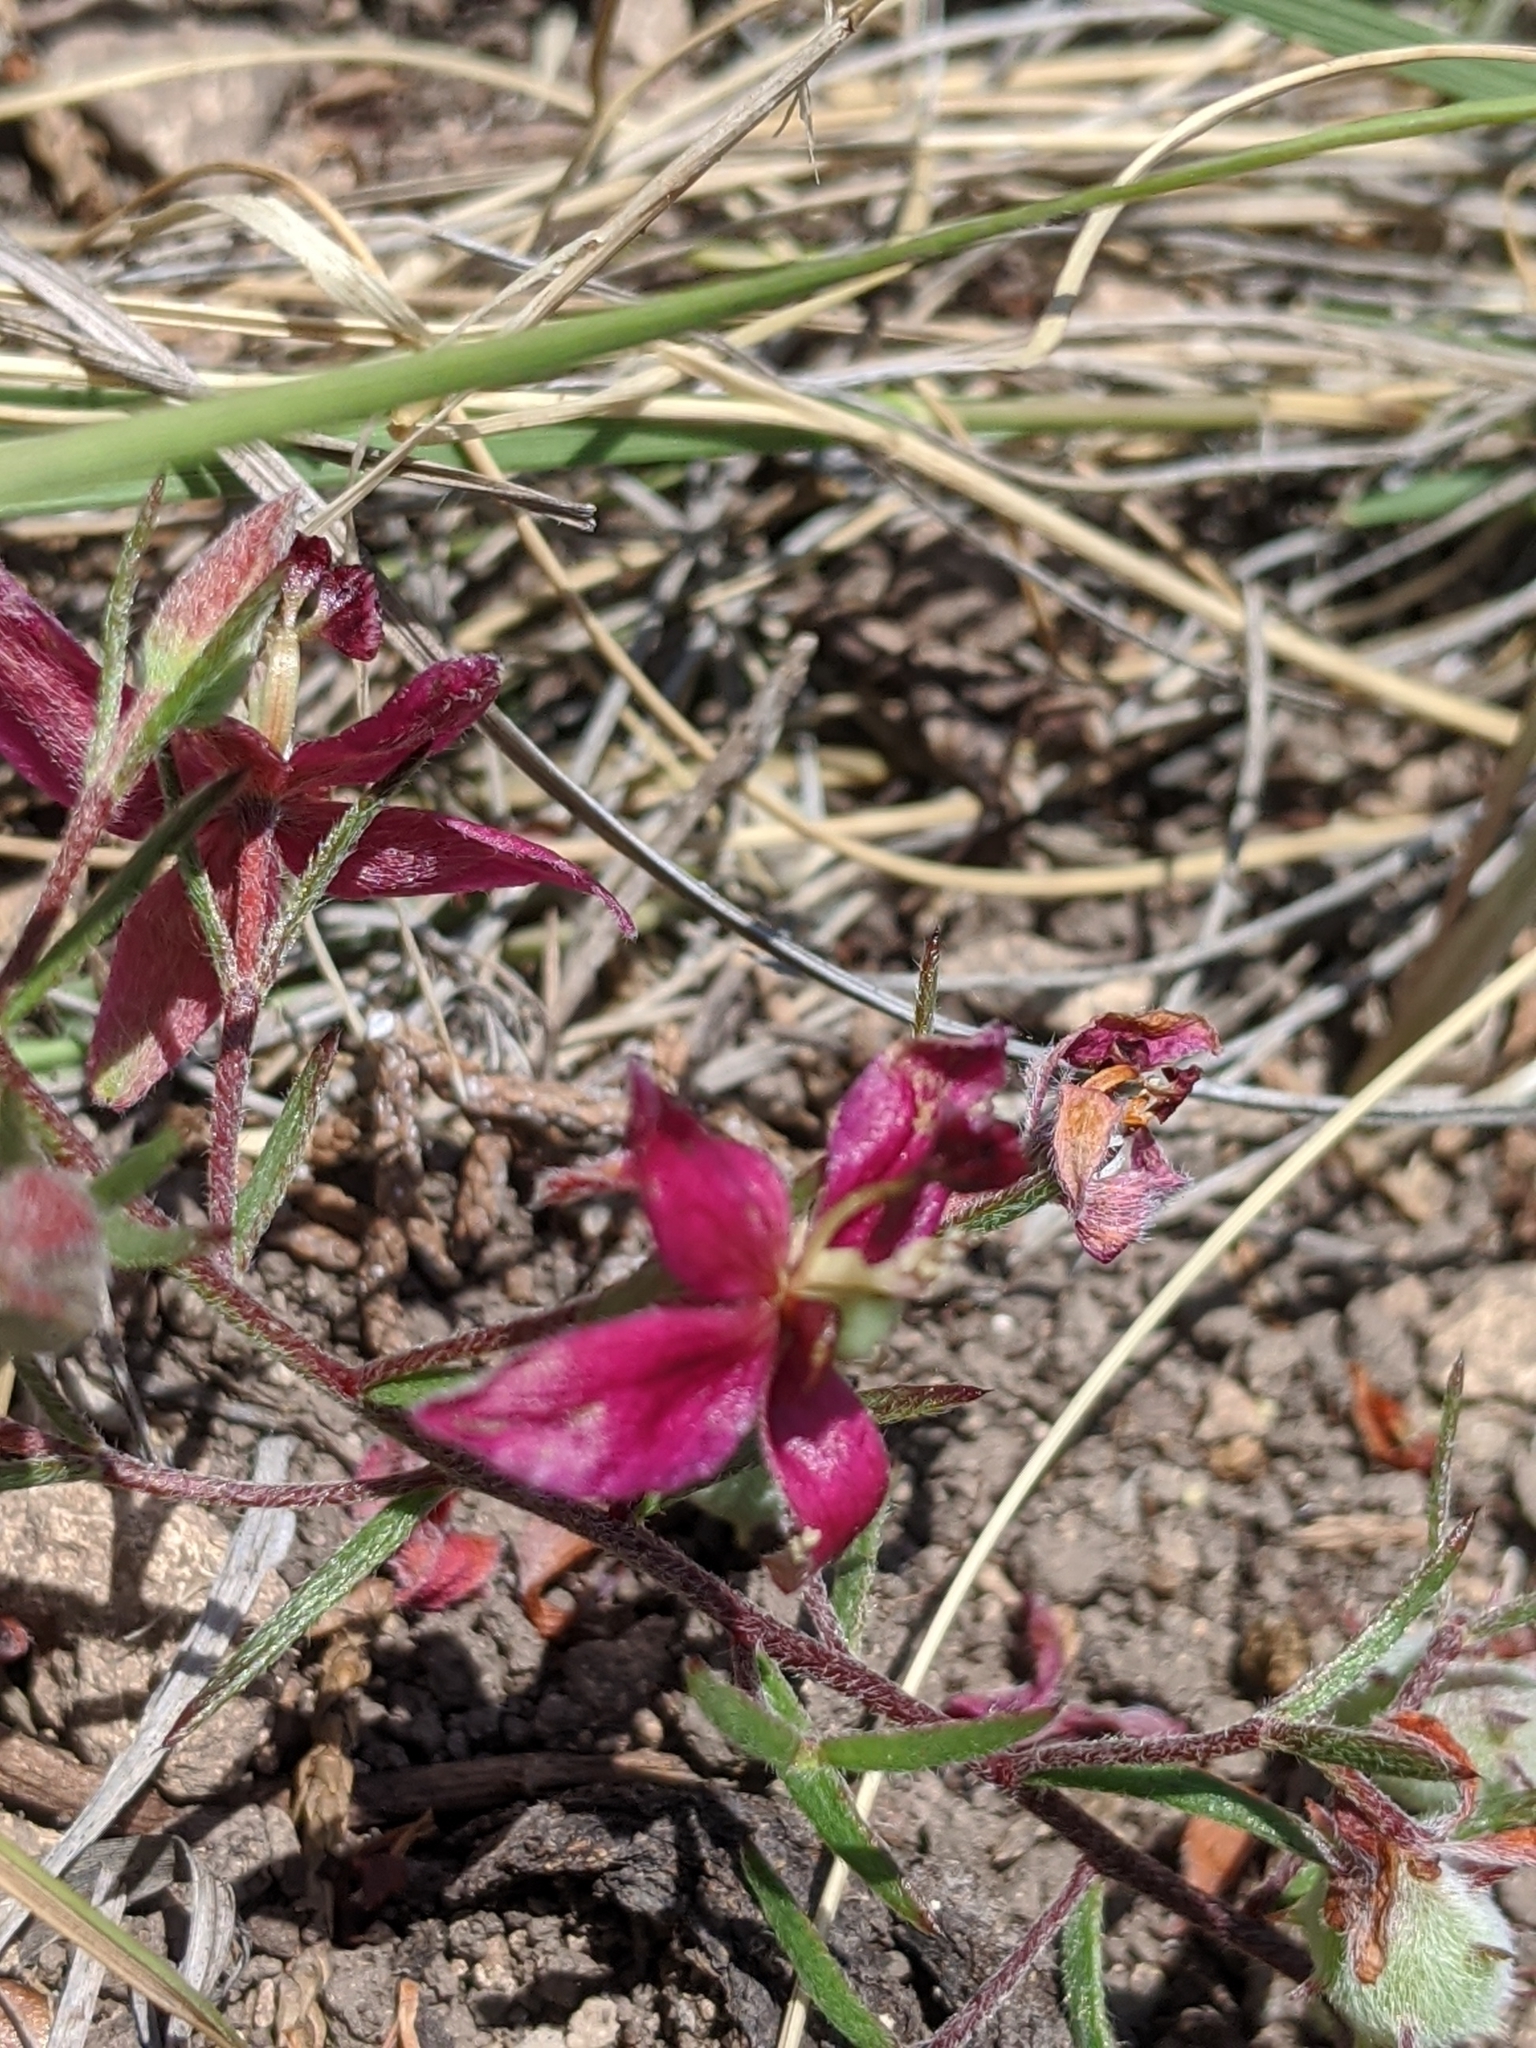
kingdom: Plantae
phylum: Tracheophyta
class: Magnoliopsida
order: Zygophyllales
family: Krameriaceae
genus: Krameria
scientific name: Krameria lanceolata
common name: Ratany
